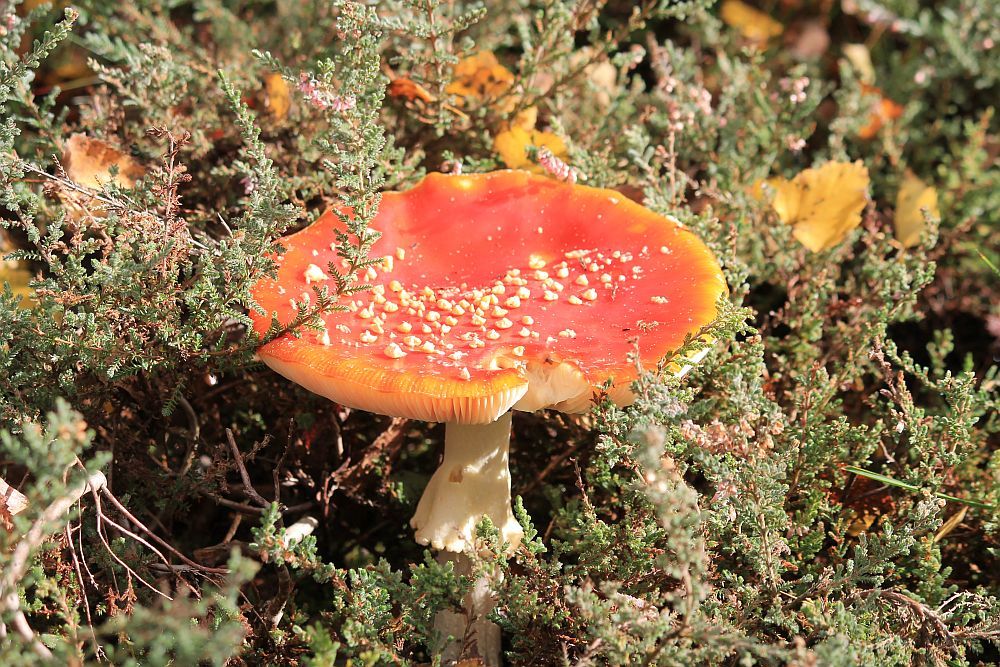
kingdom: Fungi
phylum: Basidiomycota
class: Agaricomycetes
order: Agaricales
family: Amanitaceae
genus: Amanita
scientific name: Amanita muscaria
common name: Fly agaric
